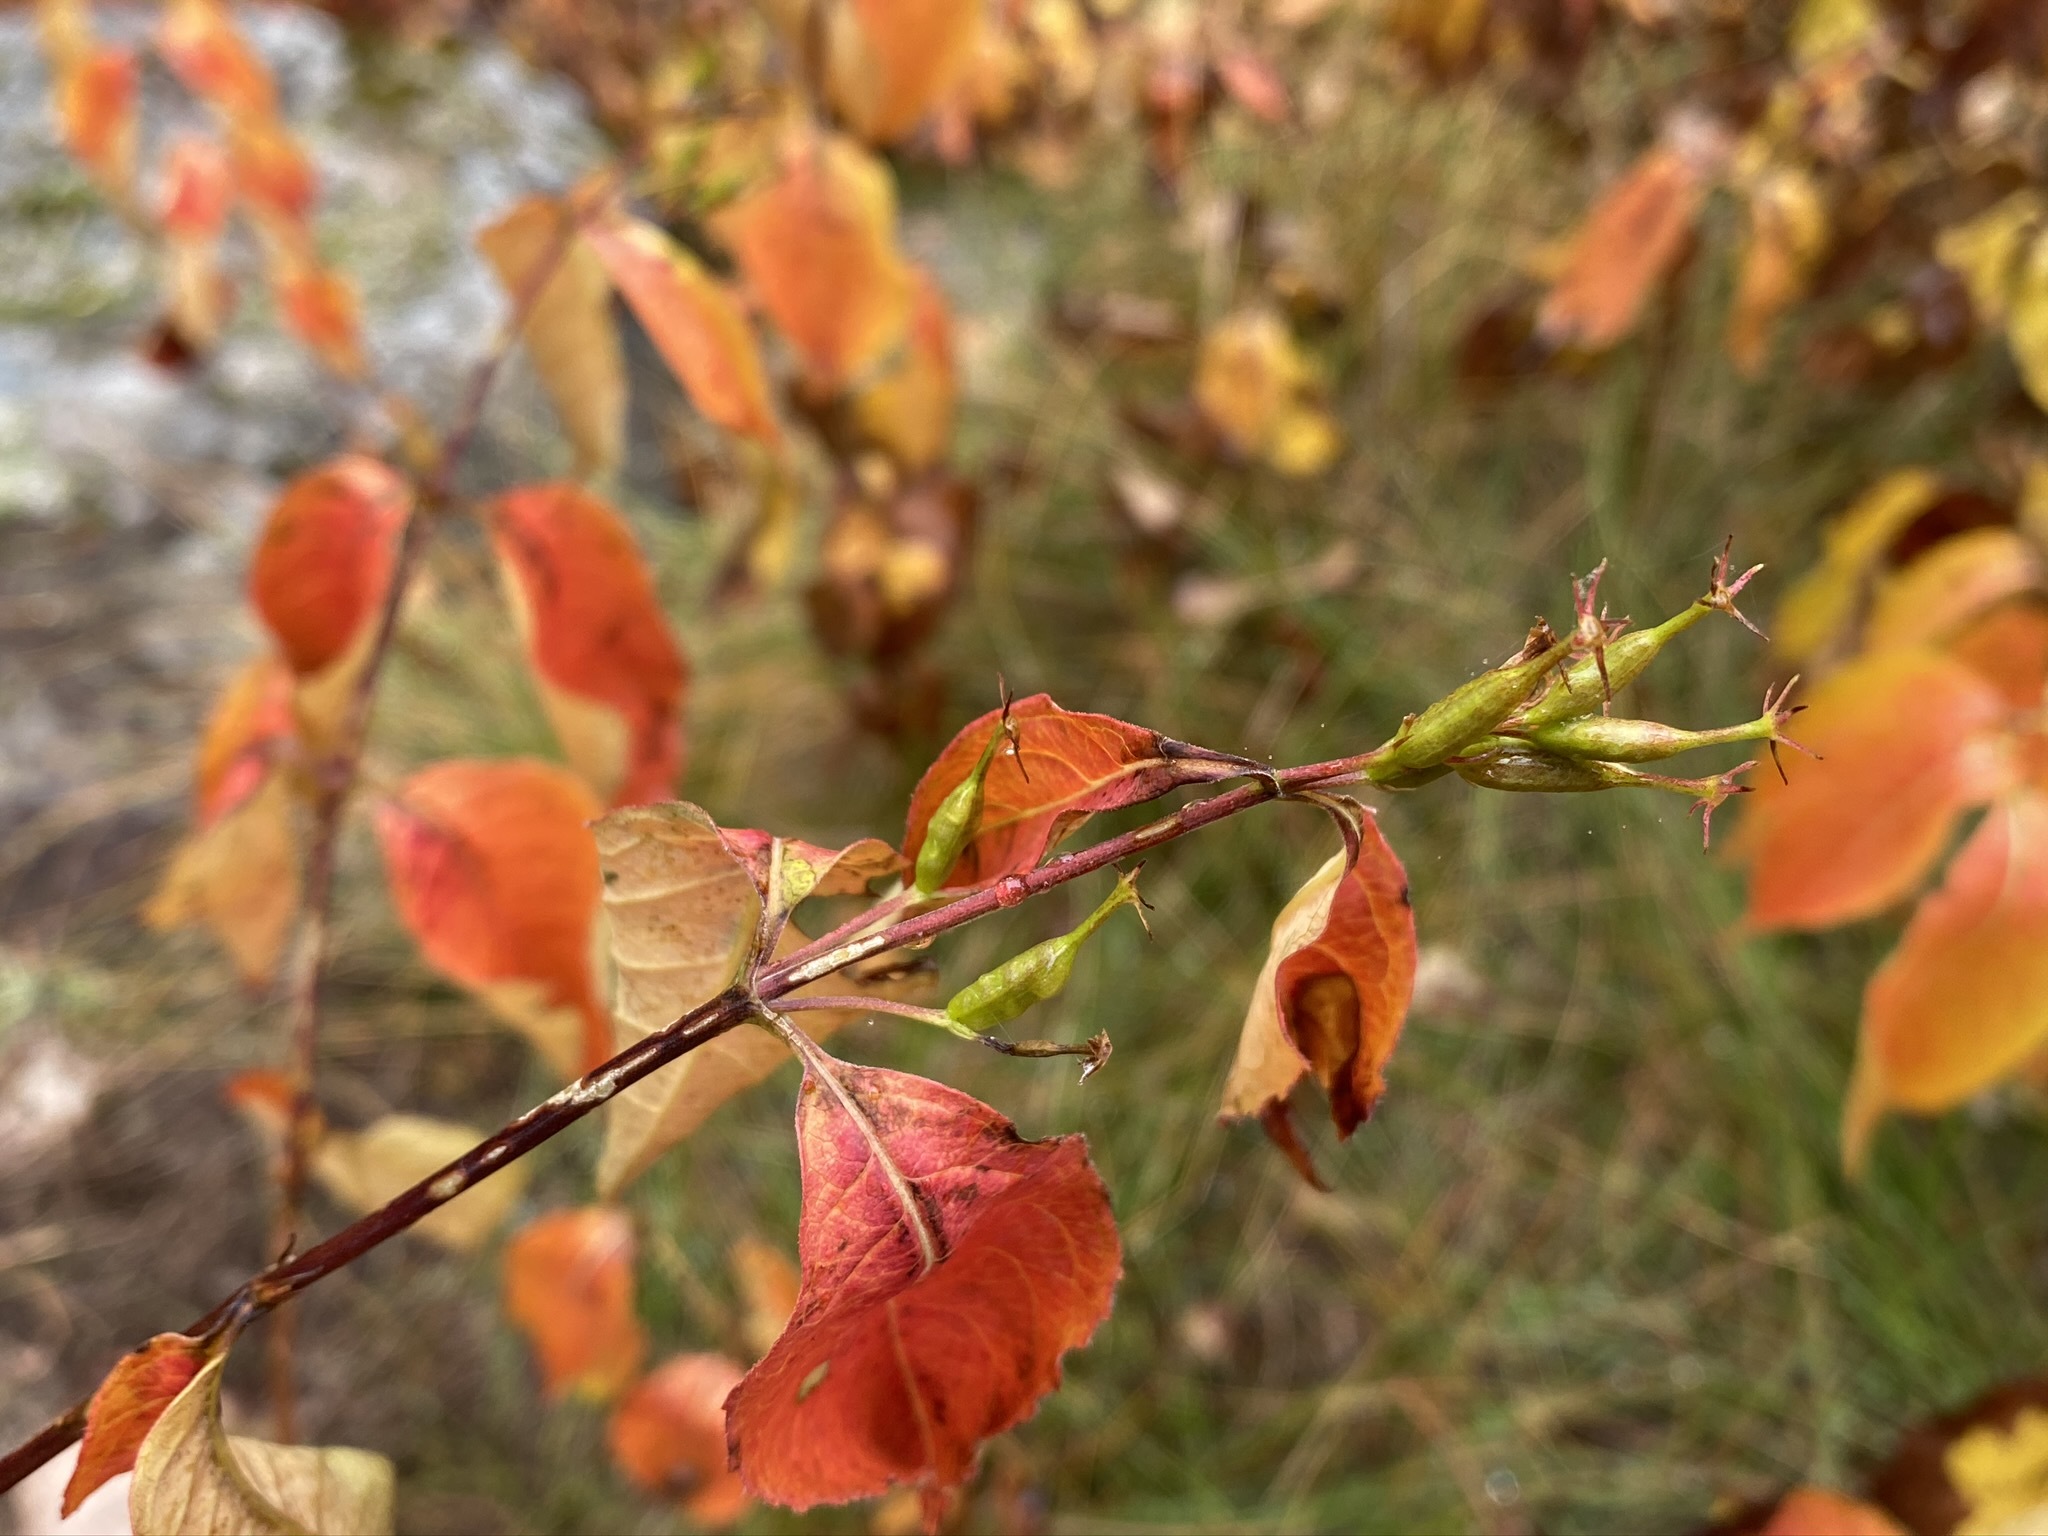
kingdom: Plantae
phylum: Tracheophyta
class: Magnoliopsida
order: Dipsacales
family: Caprifoliaceae
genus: Diervilla
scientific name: Diervilla lonicera
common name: Bush-honeysuckle
